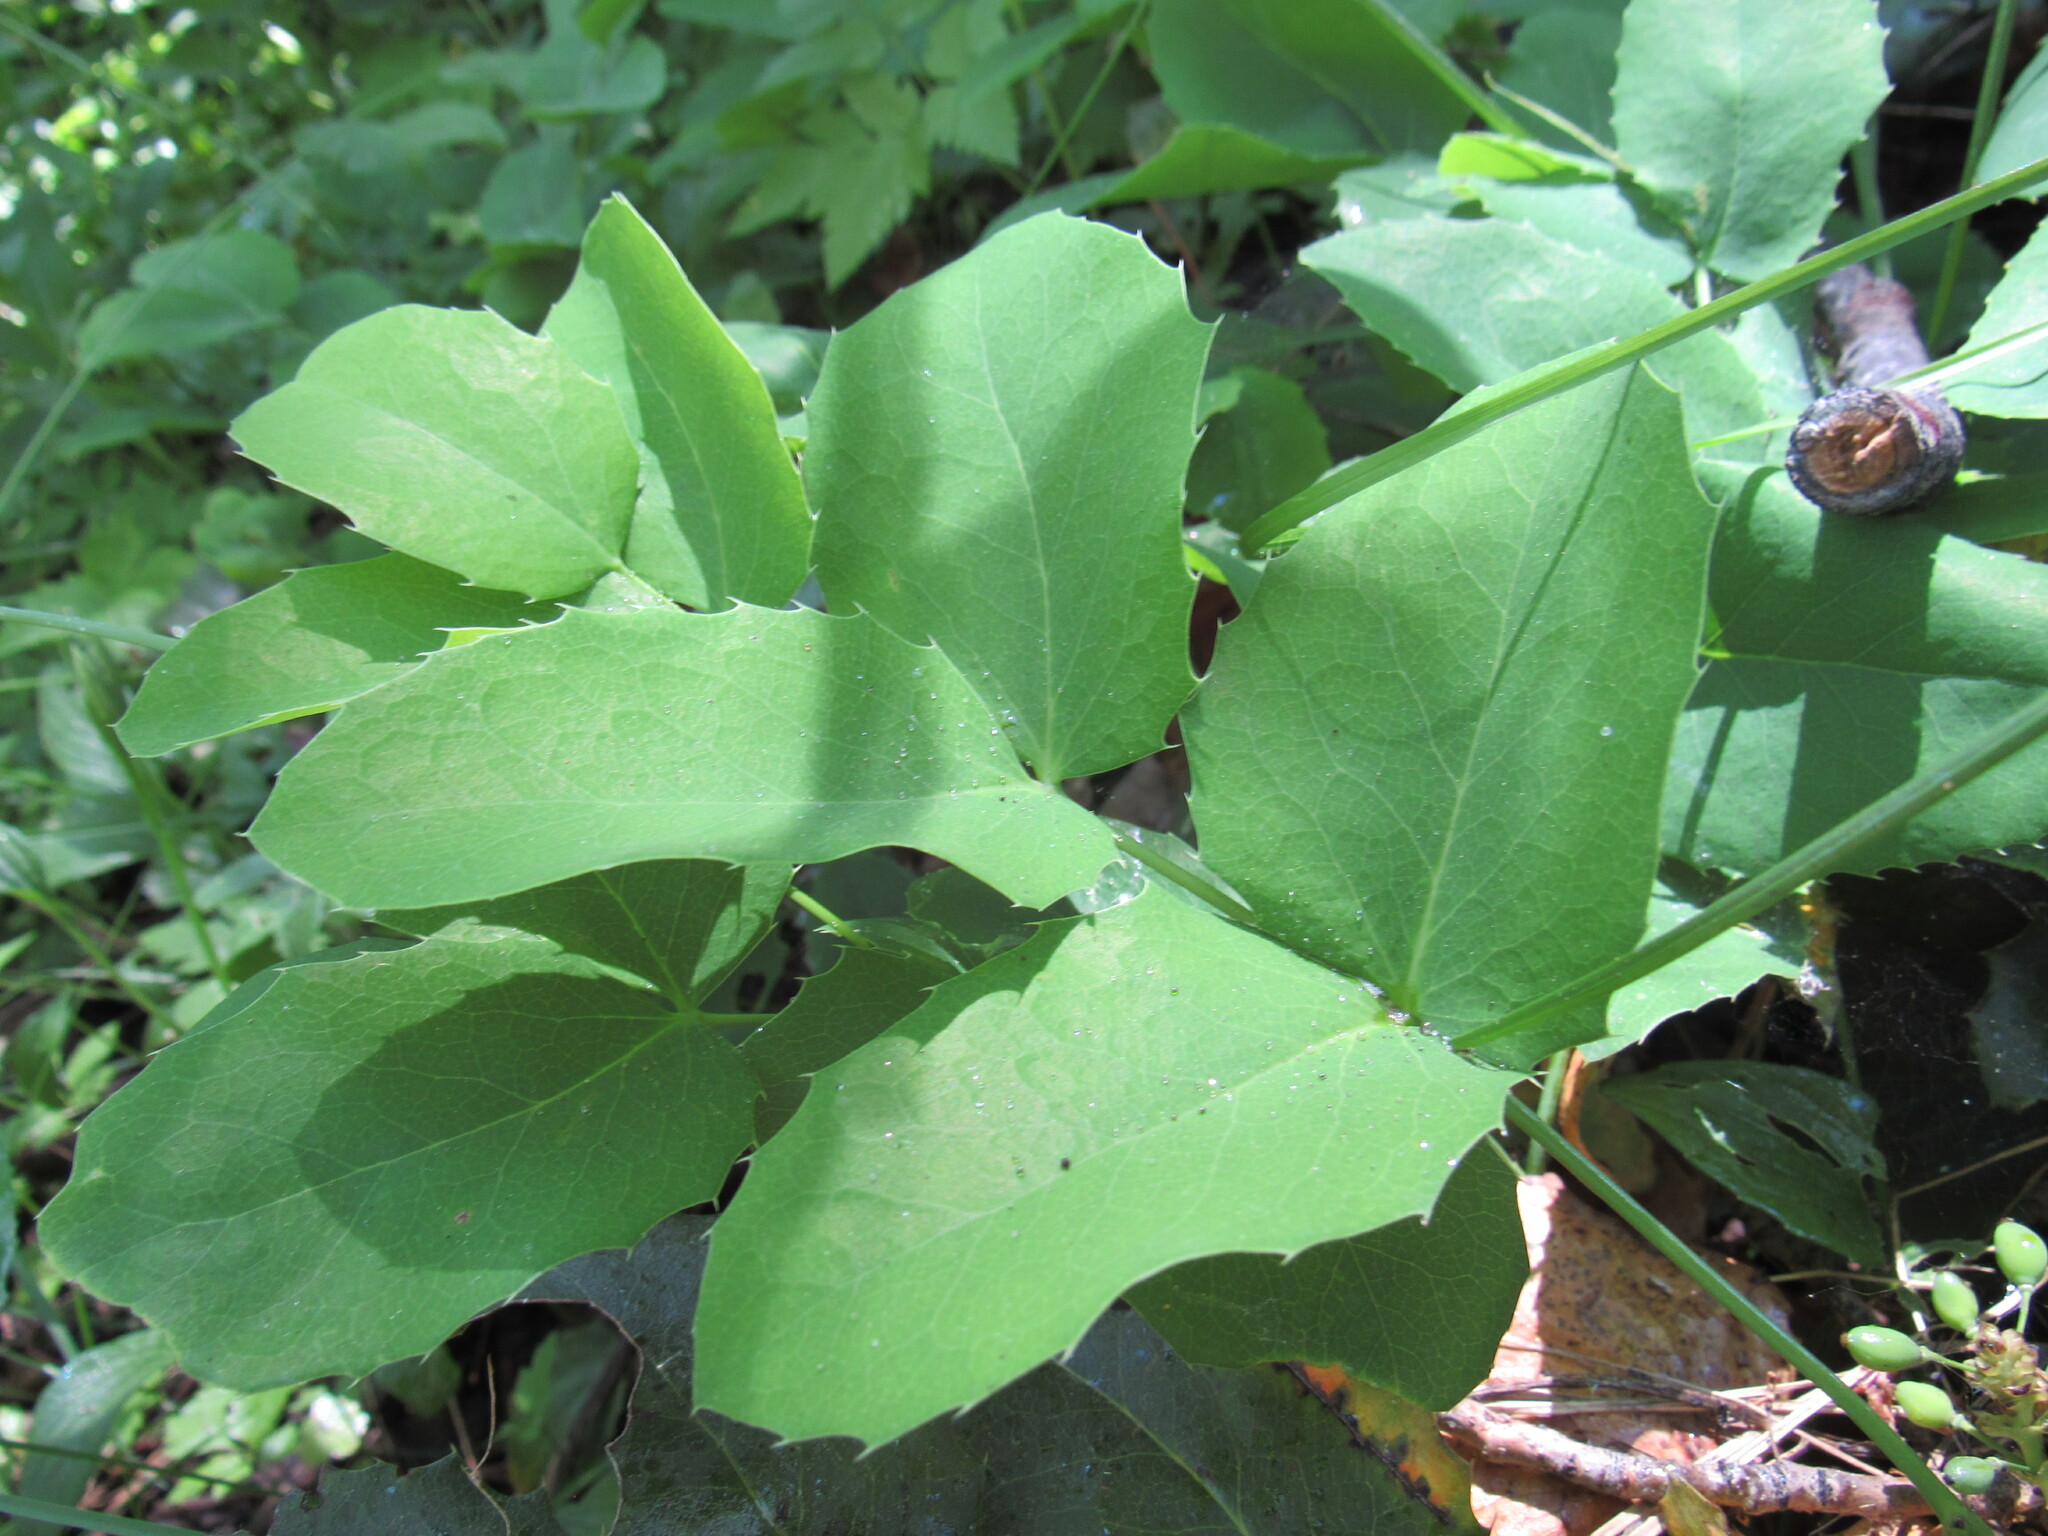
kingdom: Plantae
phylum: Tracheophyta
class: Magnoliopsida
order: Ranunculales
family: Berberidaceae
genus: Mahonia
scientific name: Mahonia repens
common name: Creeping oregon-grape
